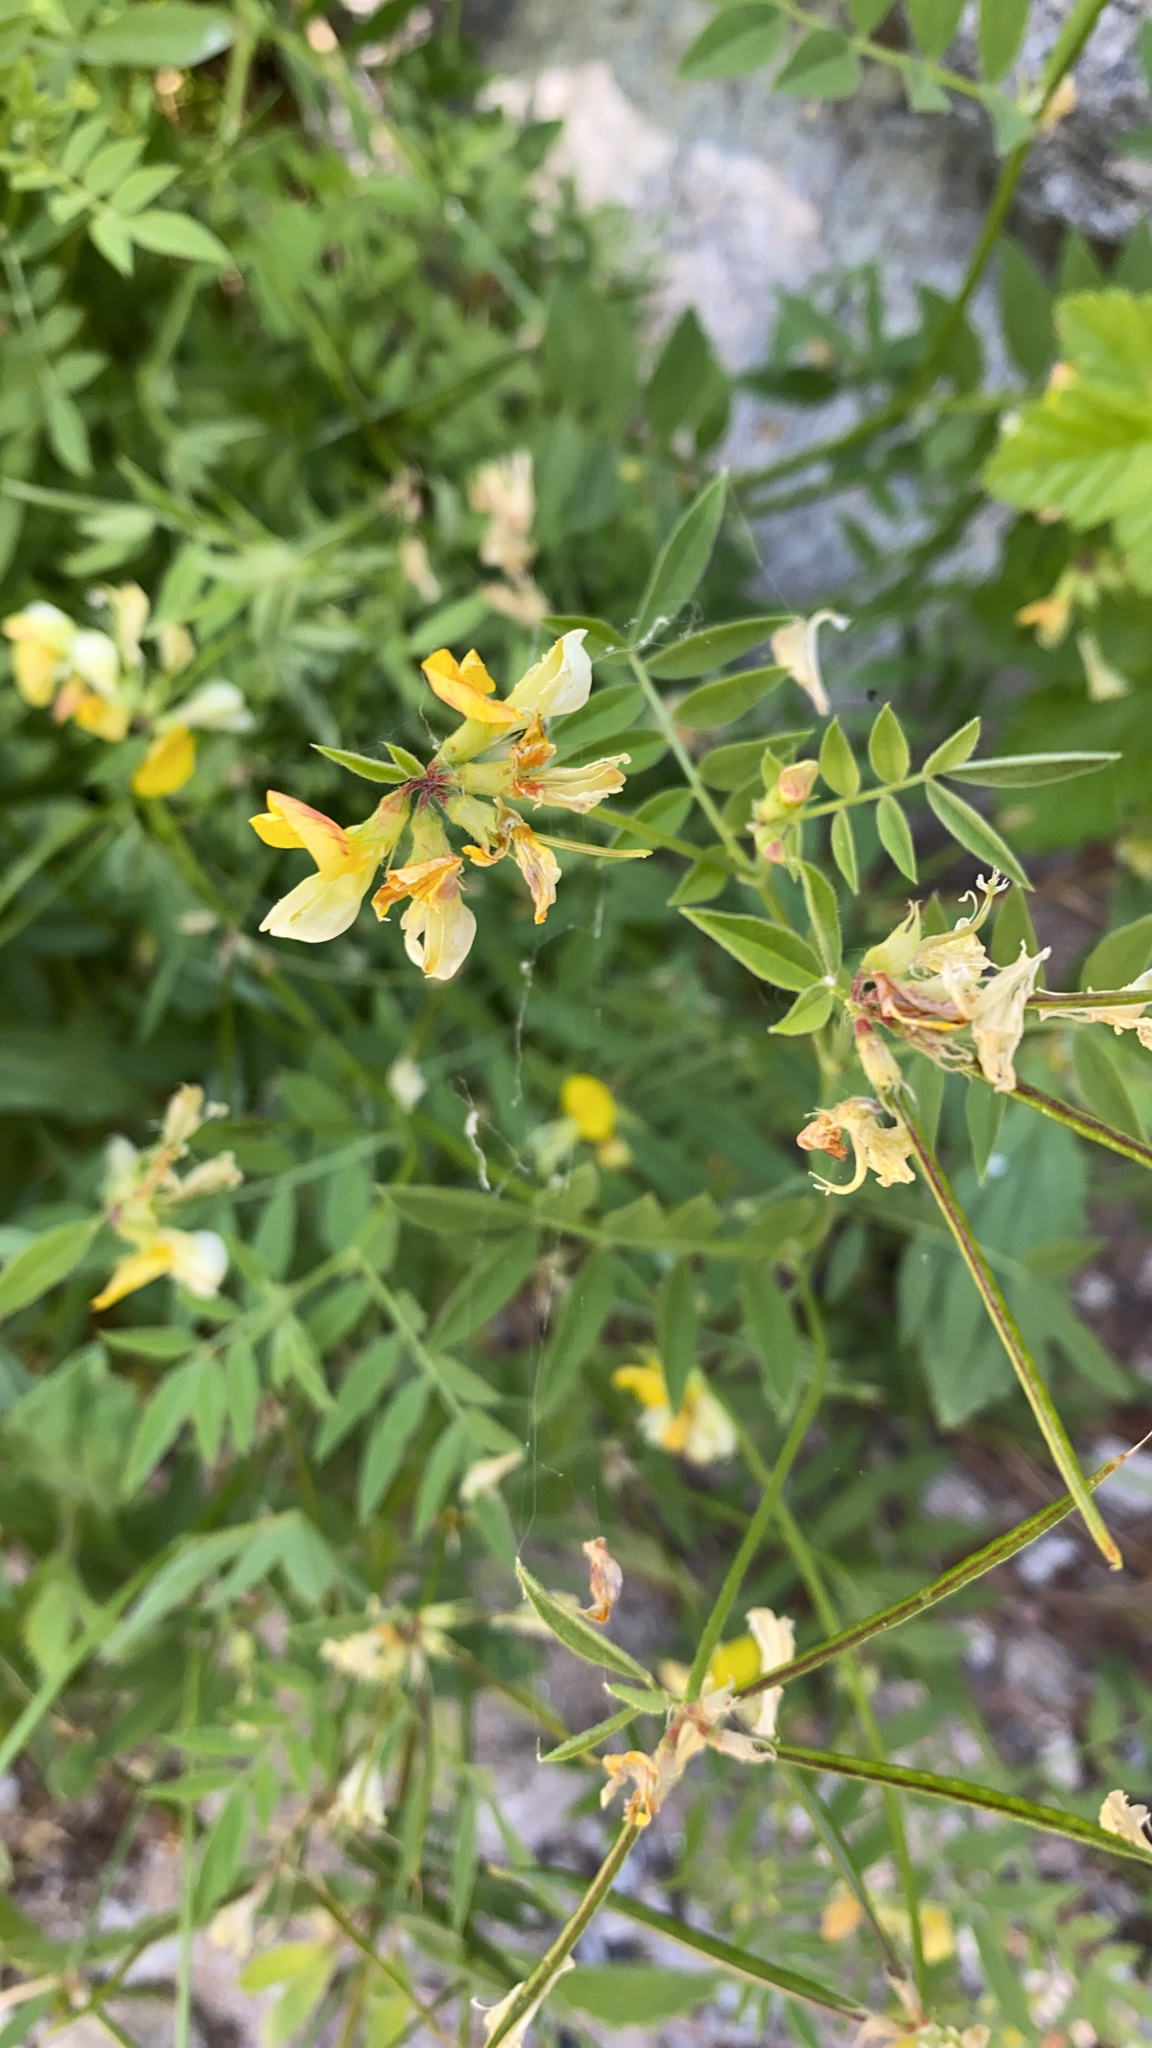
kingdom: Plantae
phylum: Tracheophyta
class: Magnoliopsida
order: Fabales
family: Fabaceae
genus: Hosackia
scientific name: Hosackia oblongifolia
